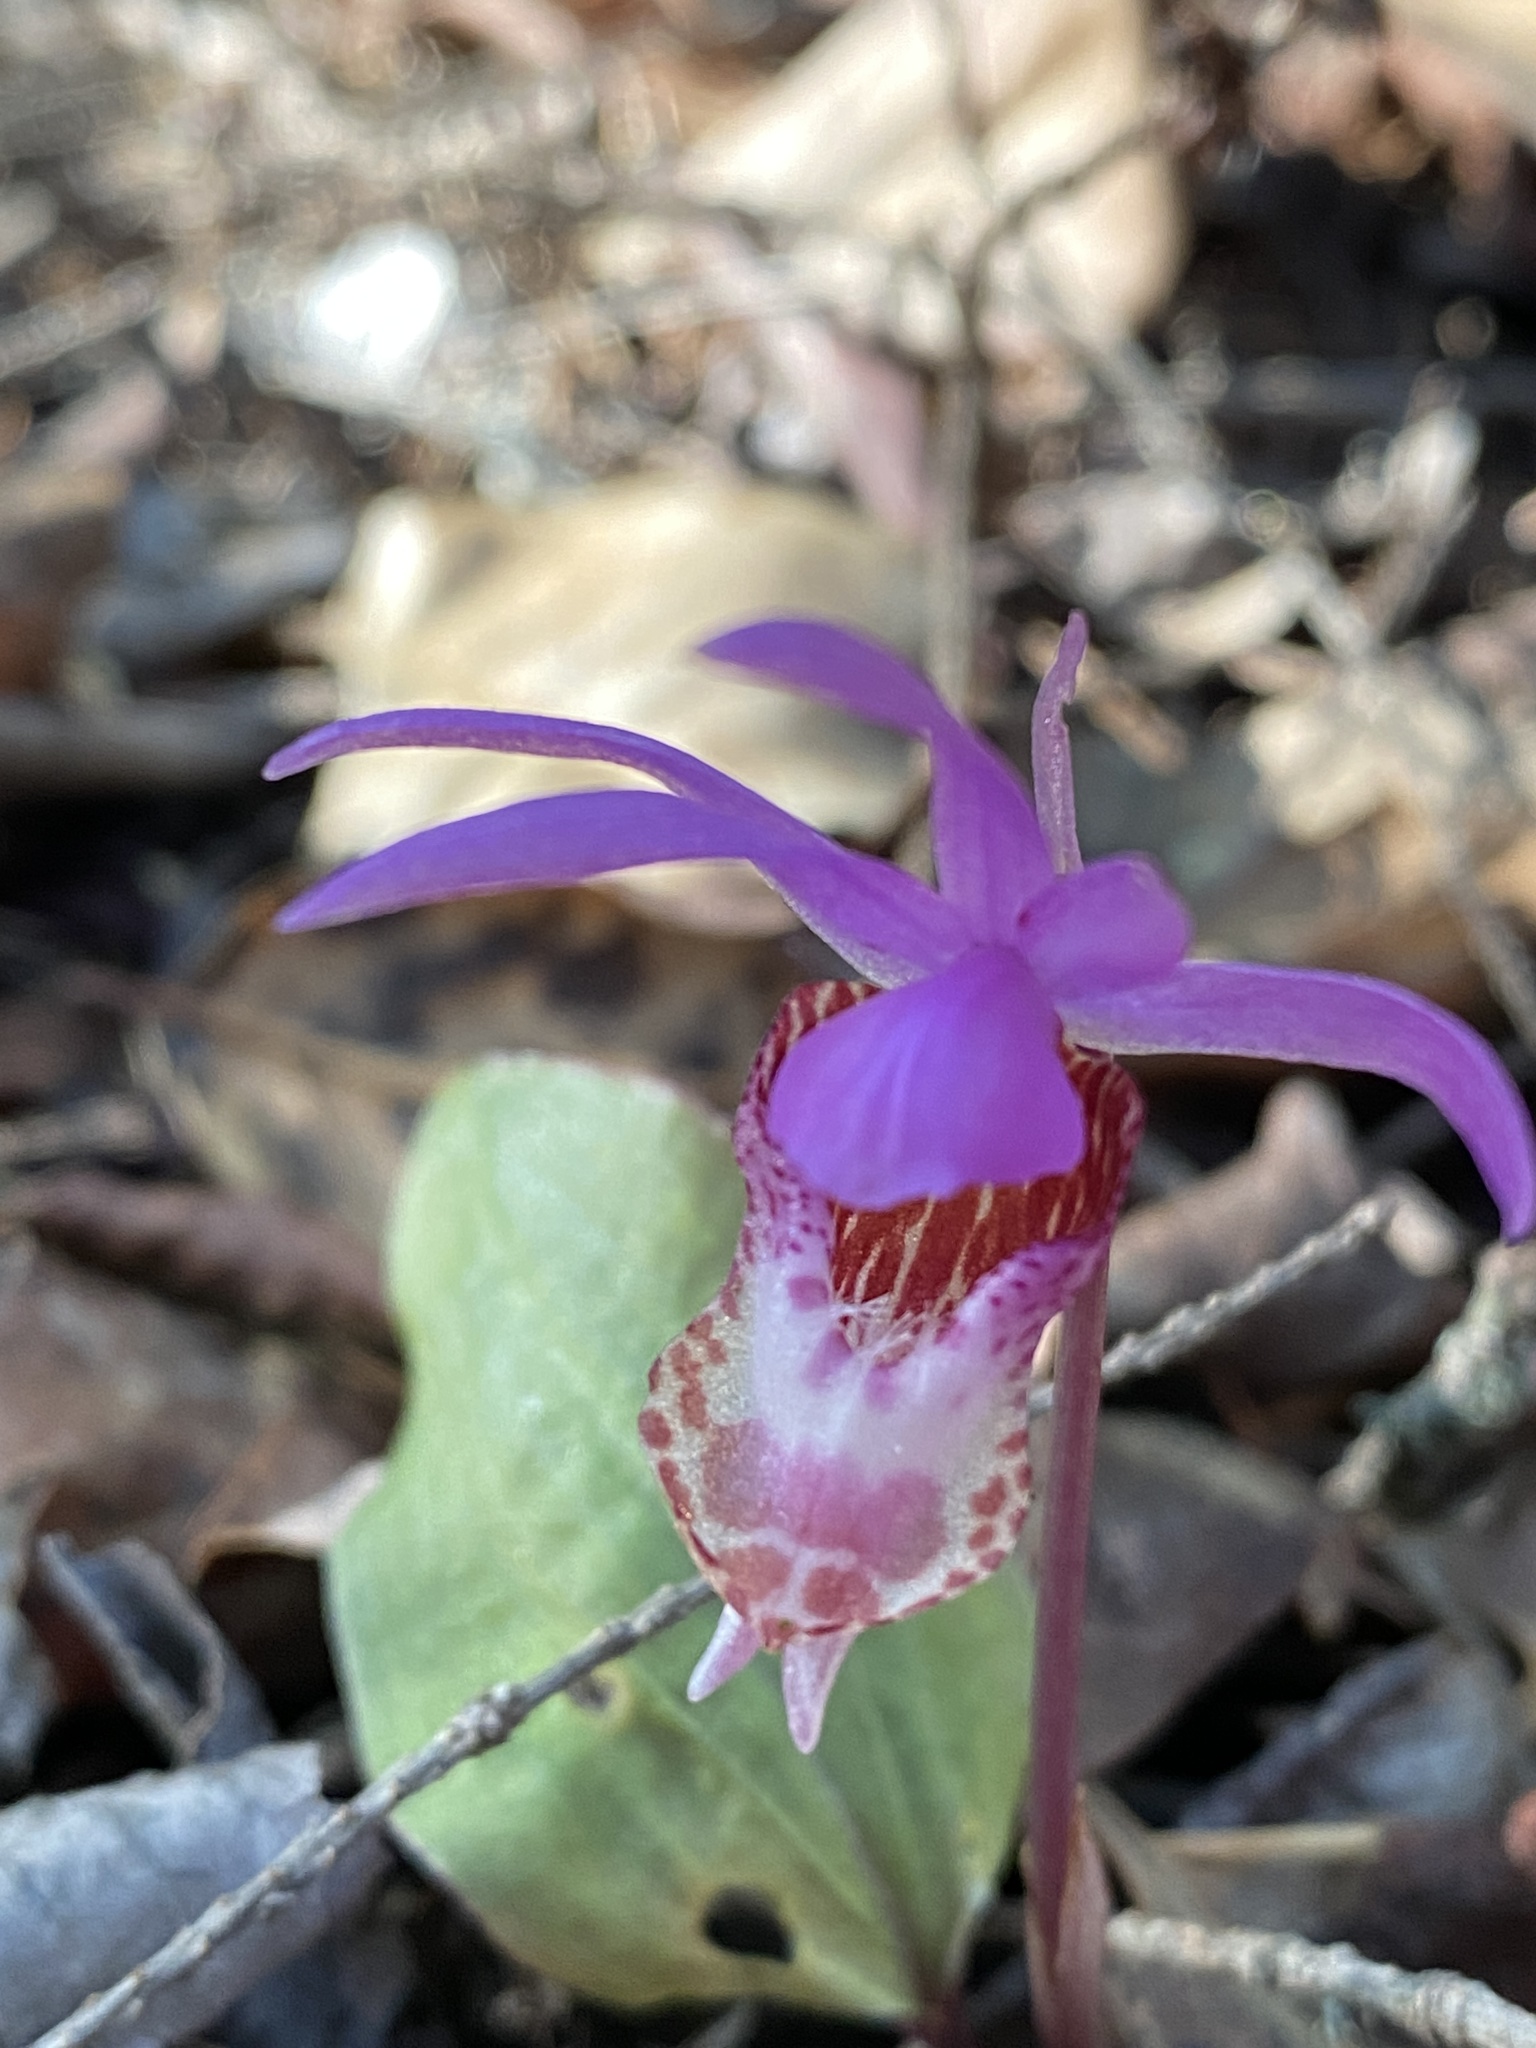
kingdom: Plantae
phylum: Tracheophyta
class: Liliopsida
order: Asparagales
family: Orchidaceae
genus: Calypso
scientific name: Calypso bulbosa
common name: Calypso
